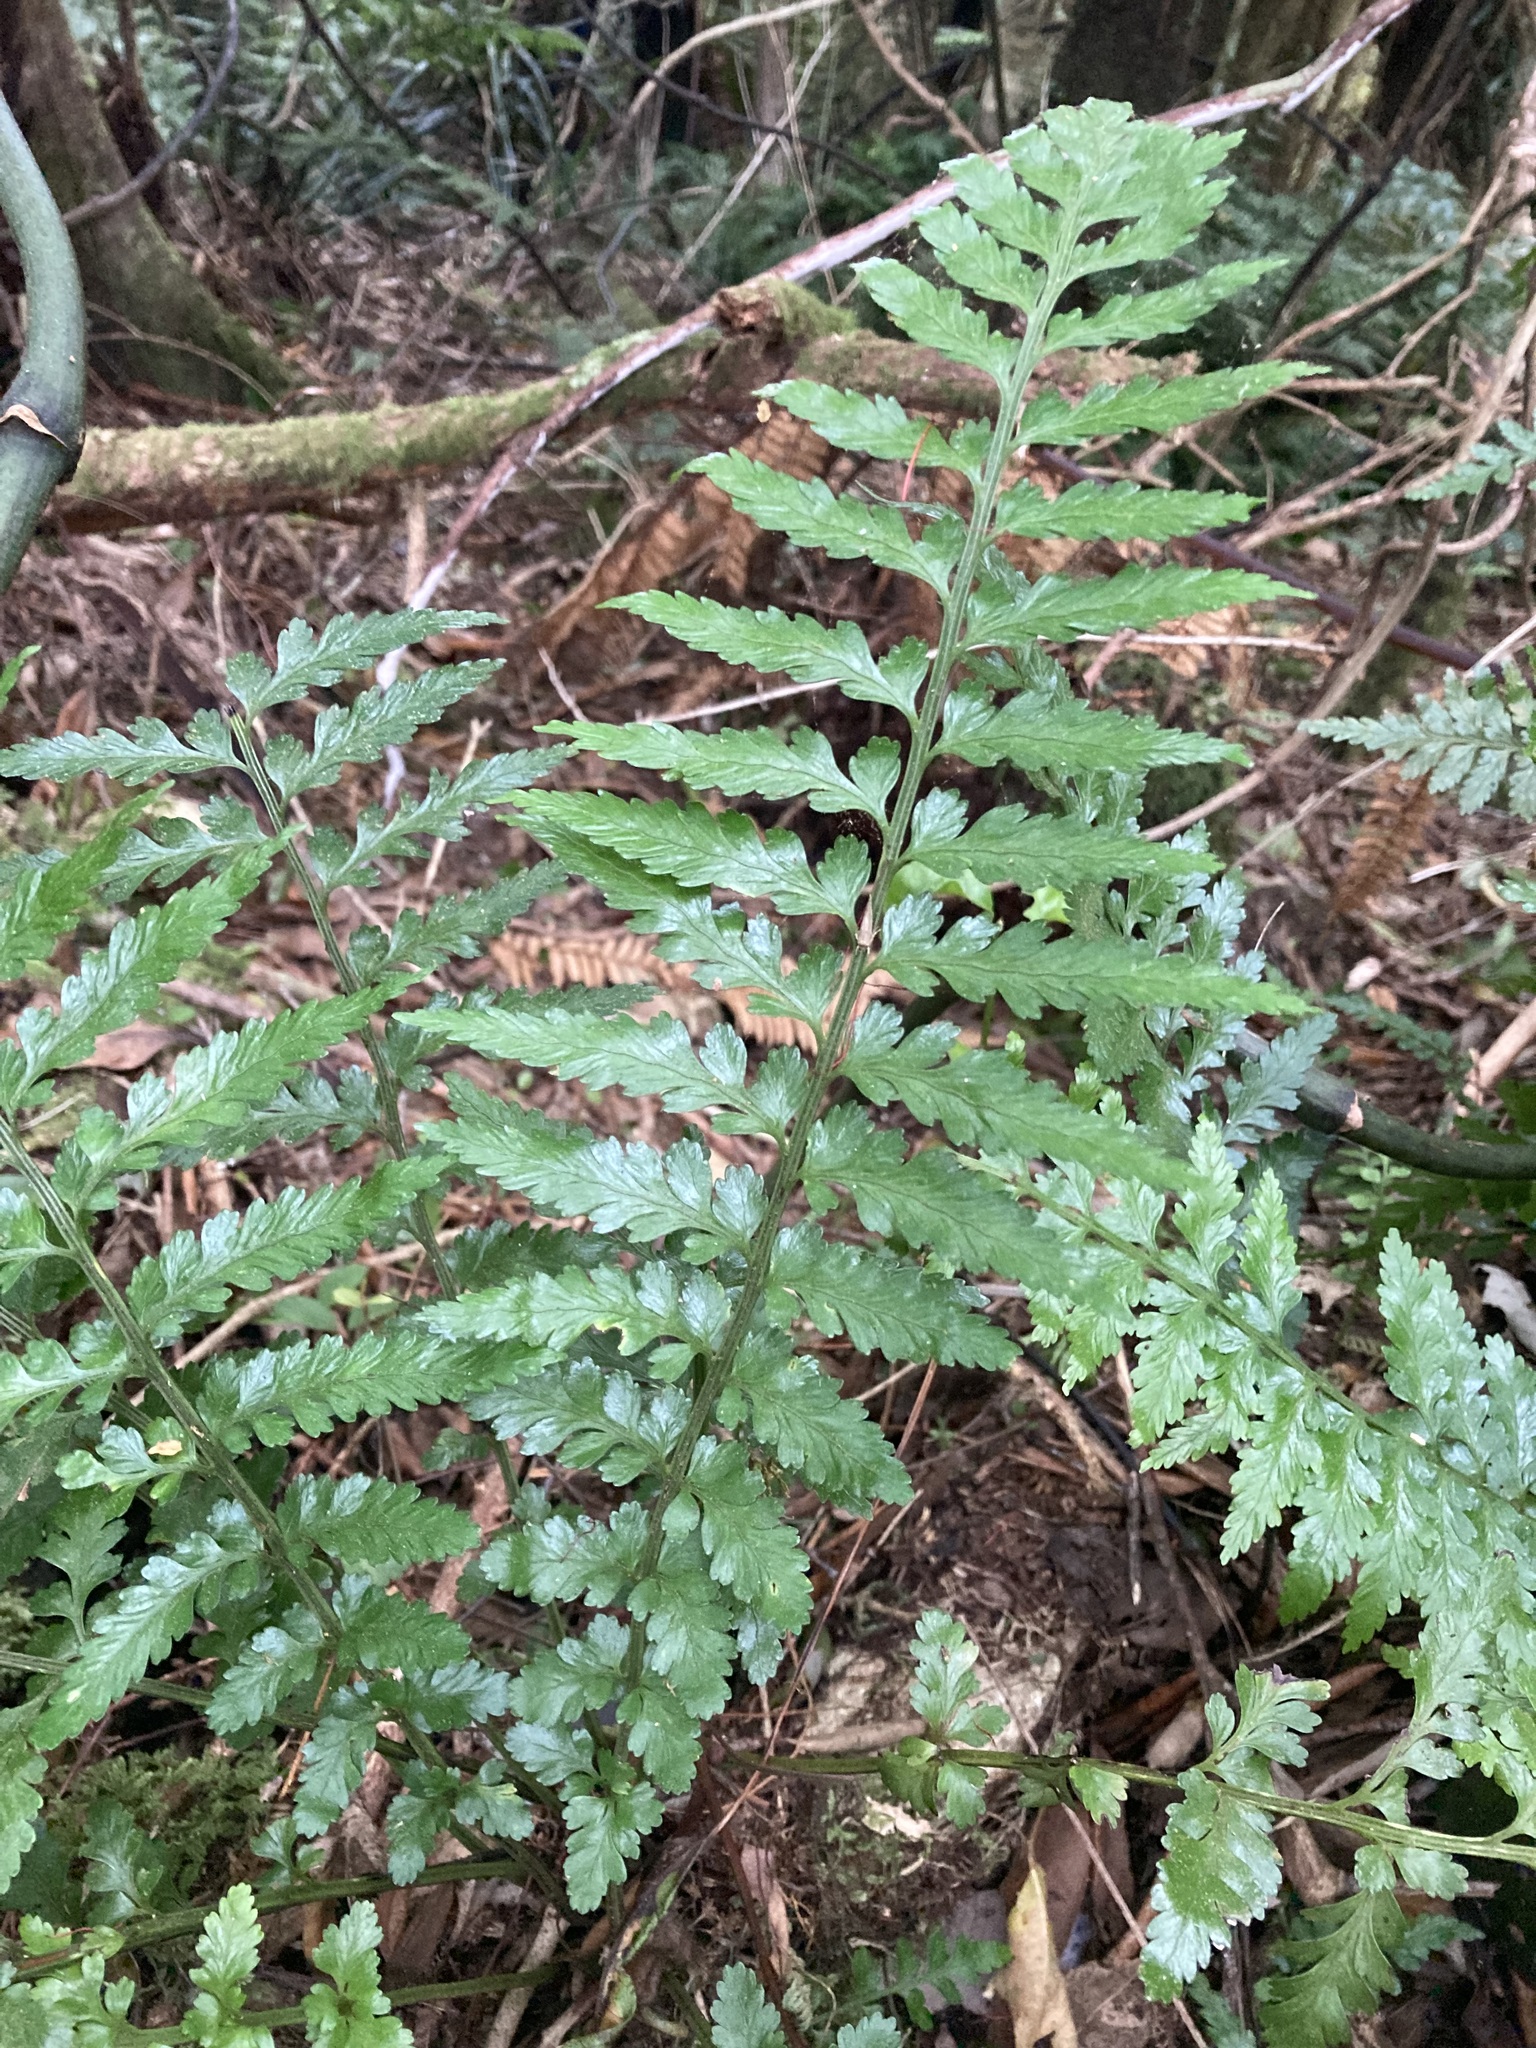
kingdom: Plantae
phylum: Tracheophyta
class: Polypodiopsida
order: Polypodiales
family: Aspleniaceae
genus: Asplenium
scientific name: Asplenium lamprophyllum
